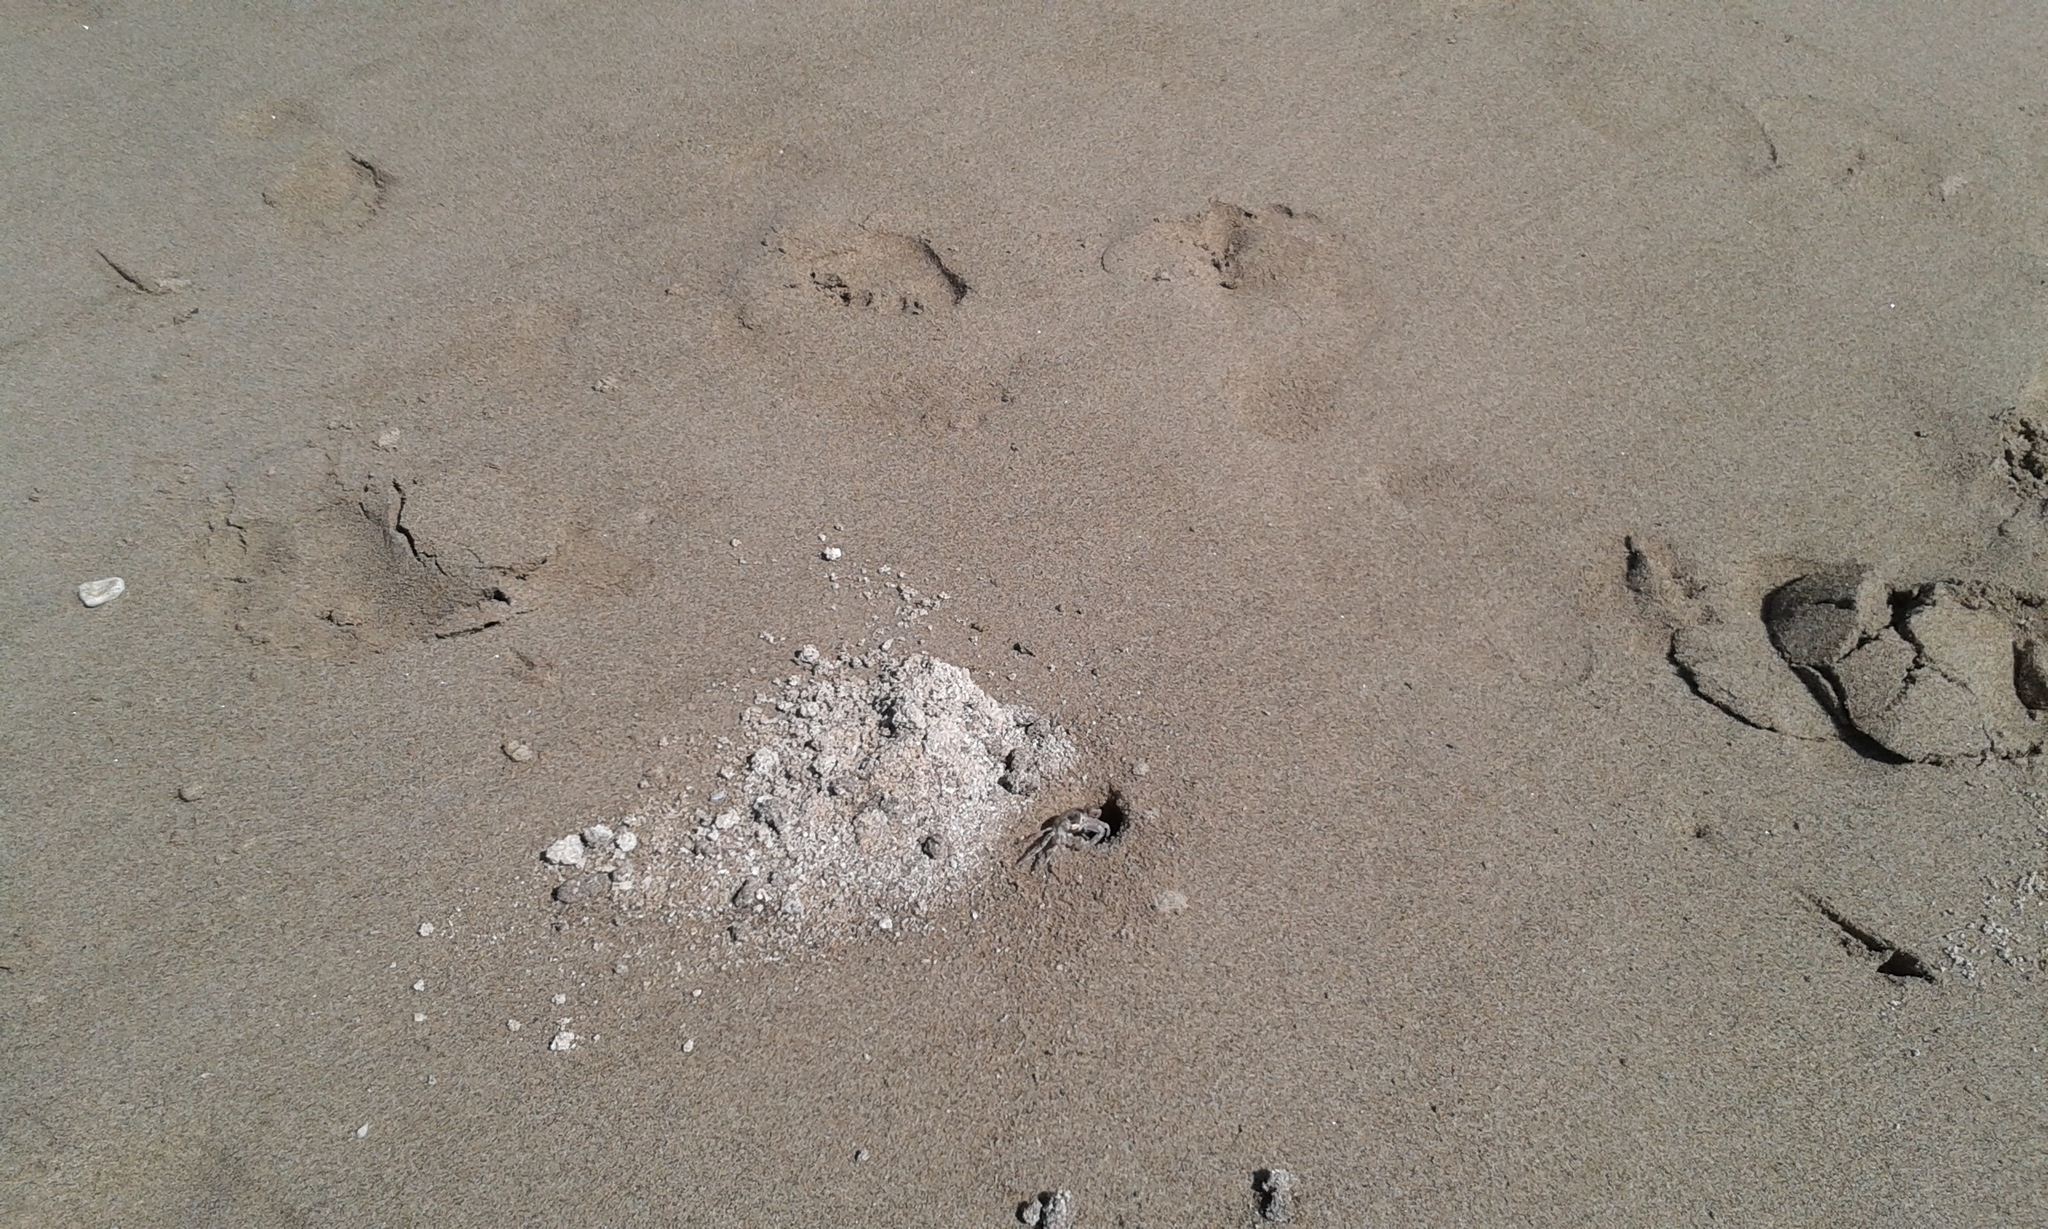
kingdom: Animalia
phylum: Arthropoda
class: Malacostraca
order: Decapoda
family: Ocypodidae
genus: Ocypode
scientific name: Ocypode ceratophthalmus
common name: Indo-pacific ghost crab
